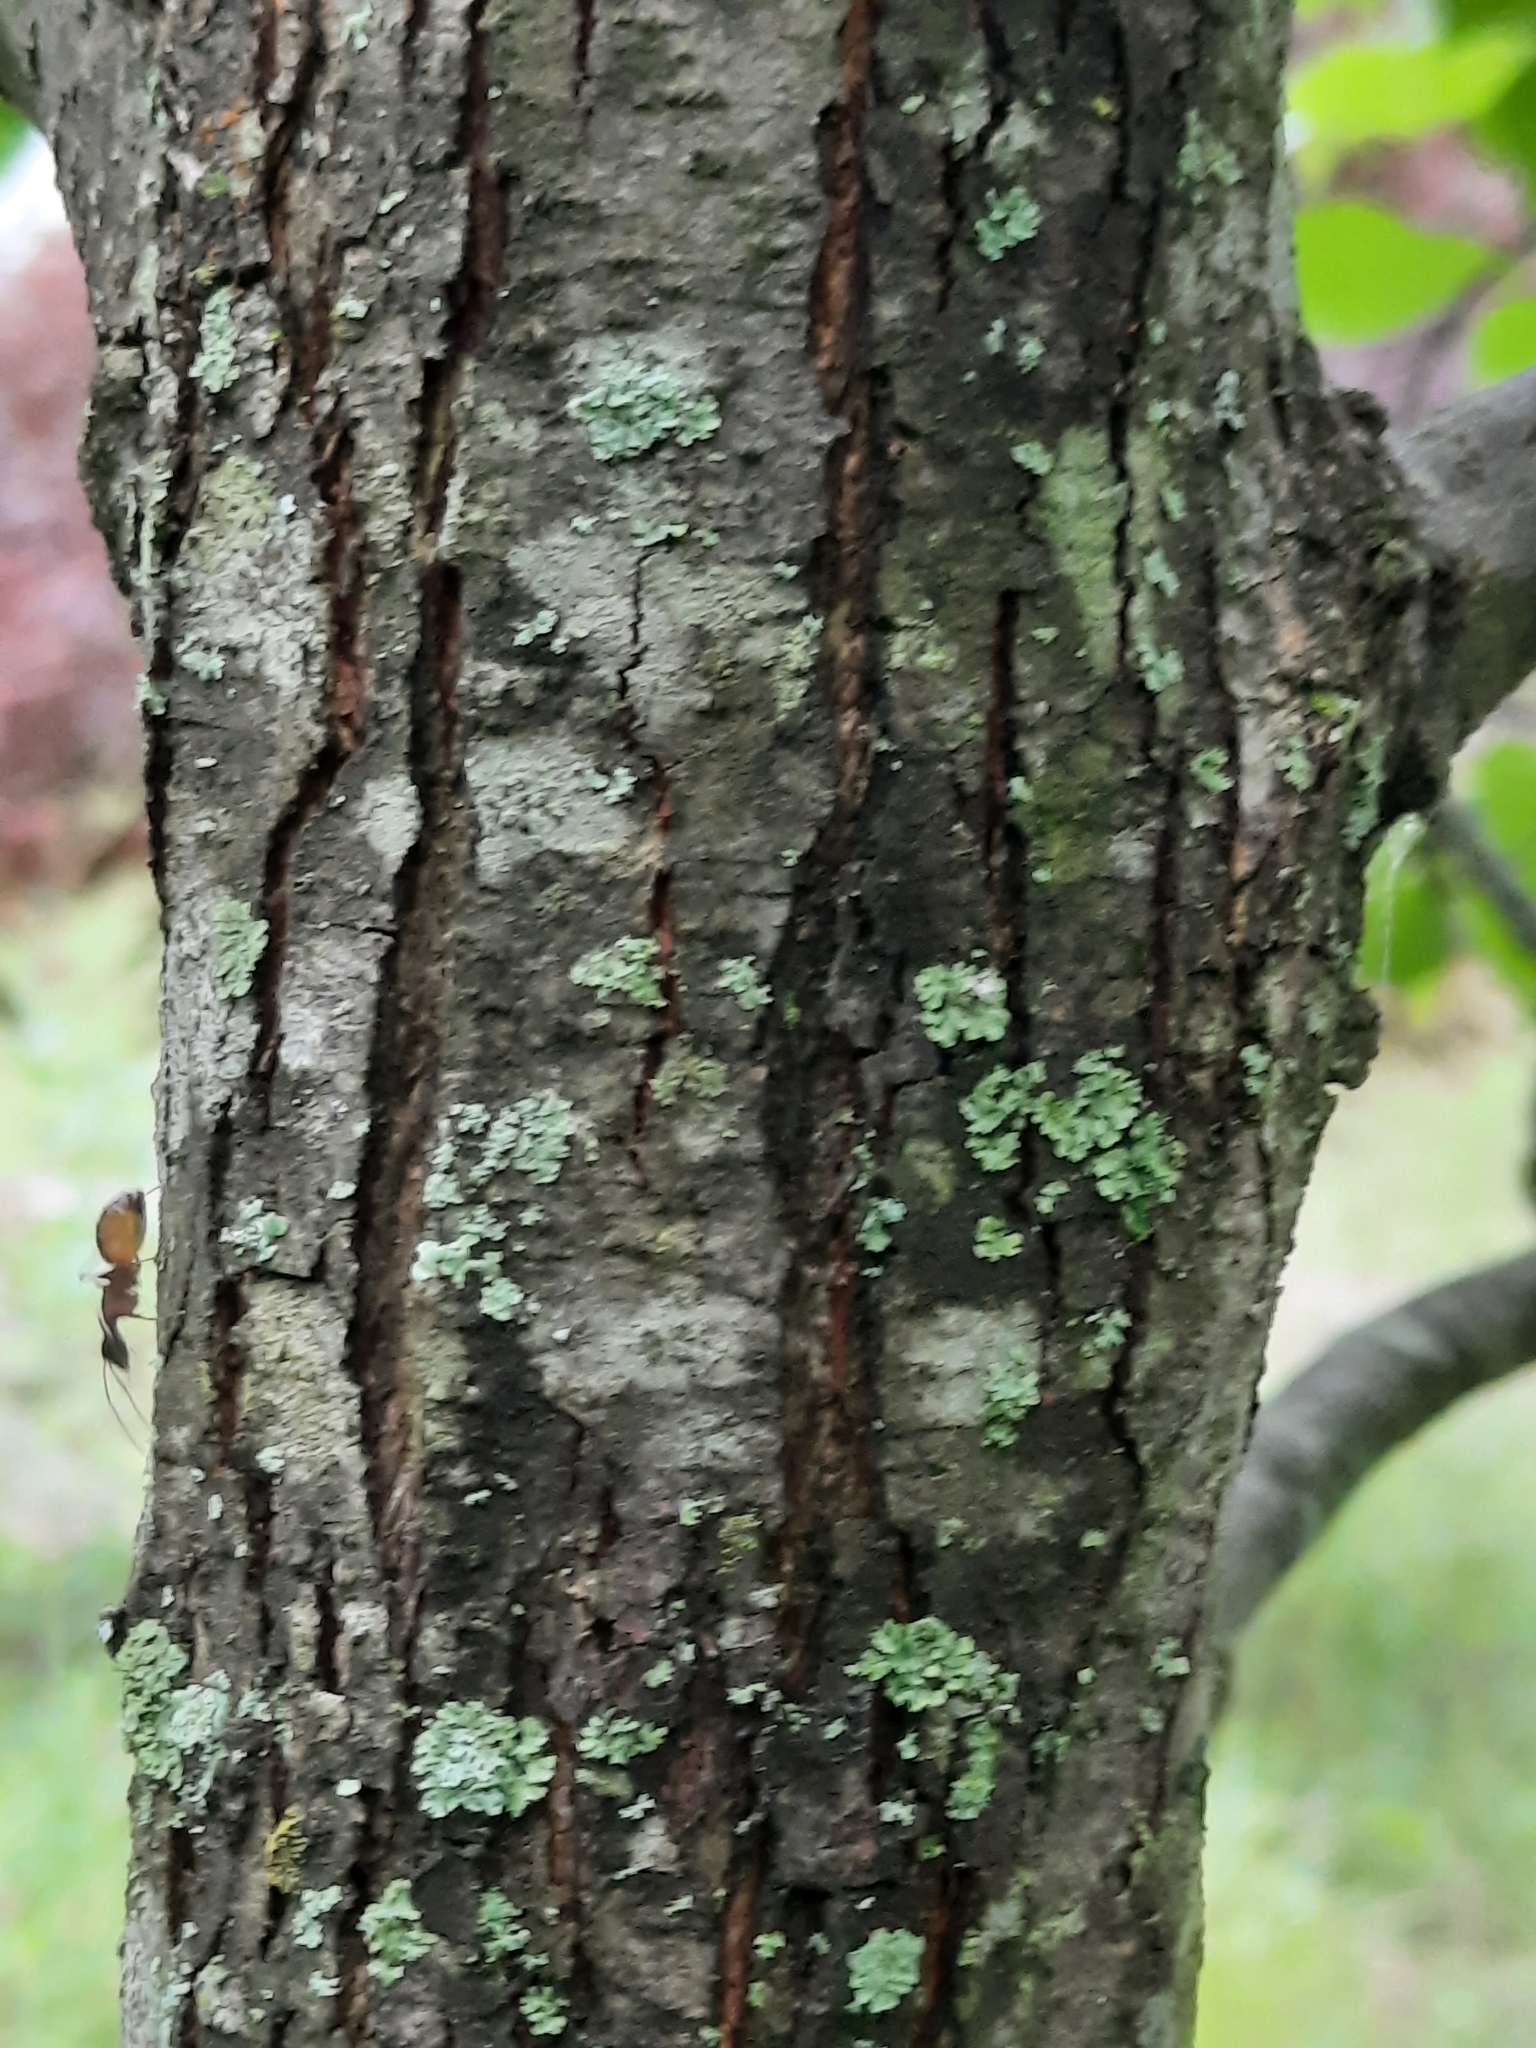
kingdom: Plantae
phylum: Tracheophyta
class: Magnoliopsida
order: Fagales
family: Betulaceae
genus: Ostrya
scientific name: Ostrya virginiana
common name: Ironwood
